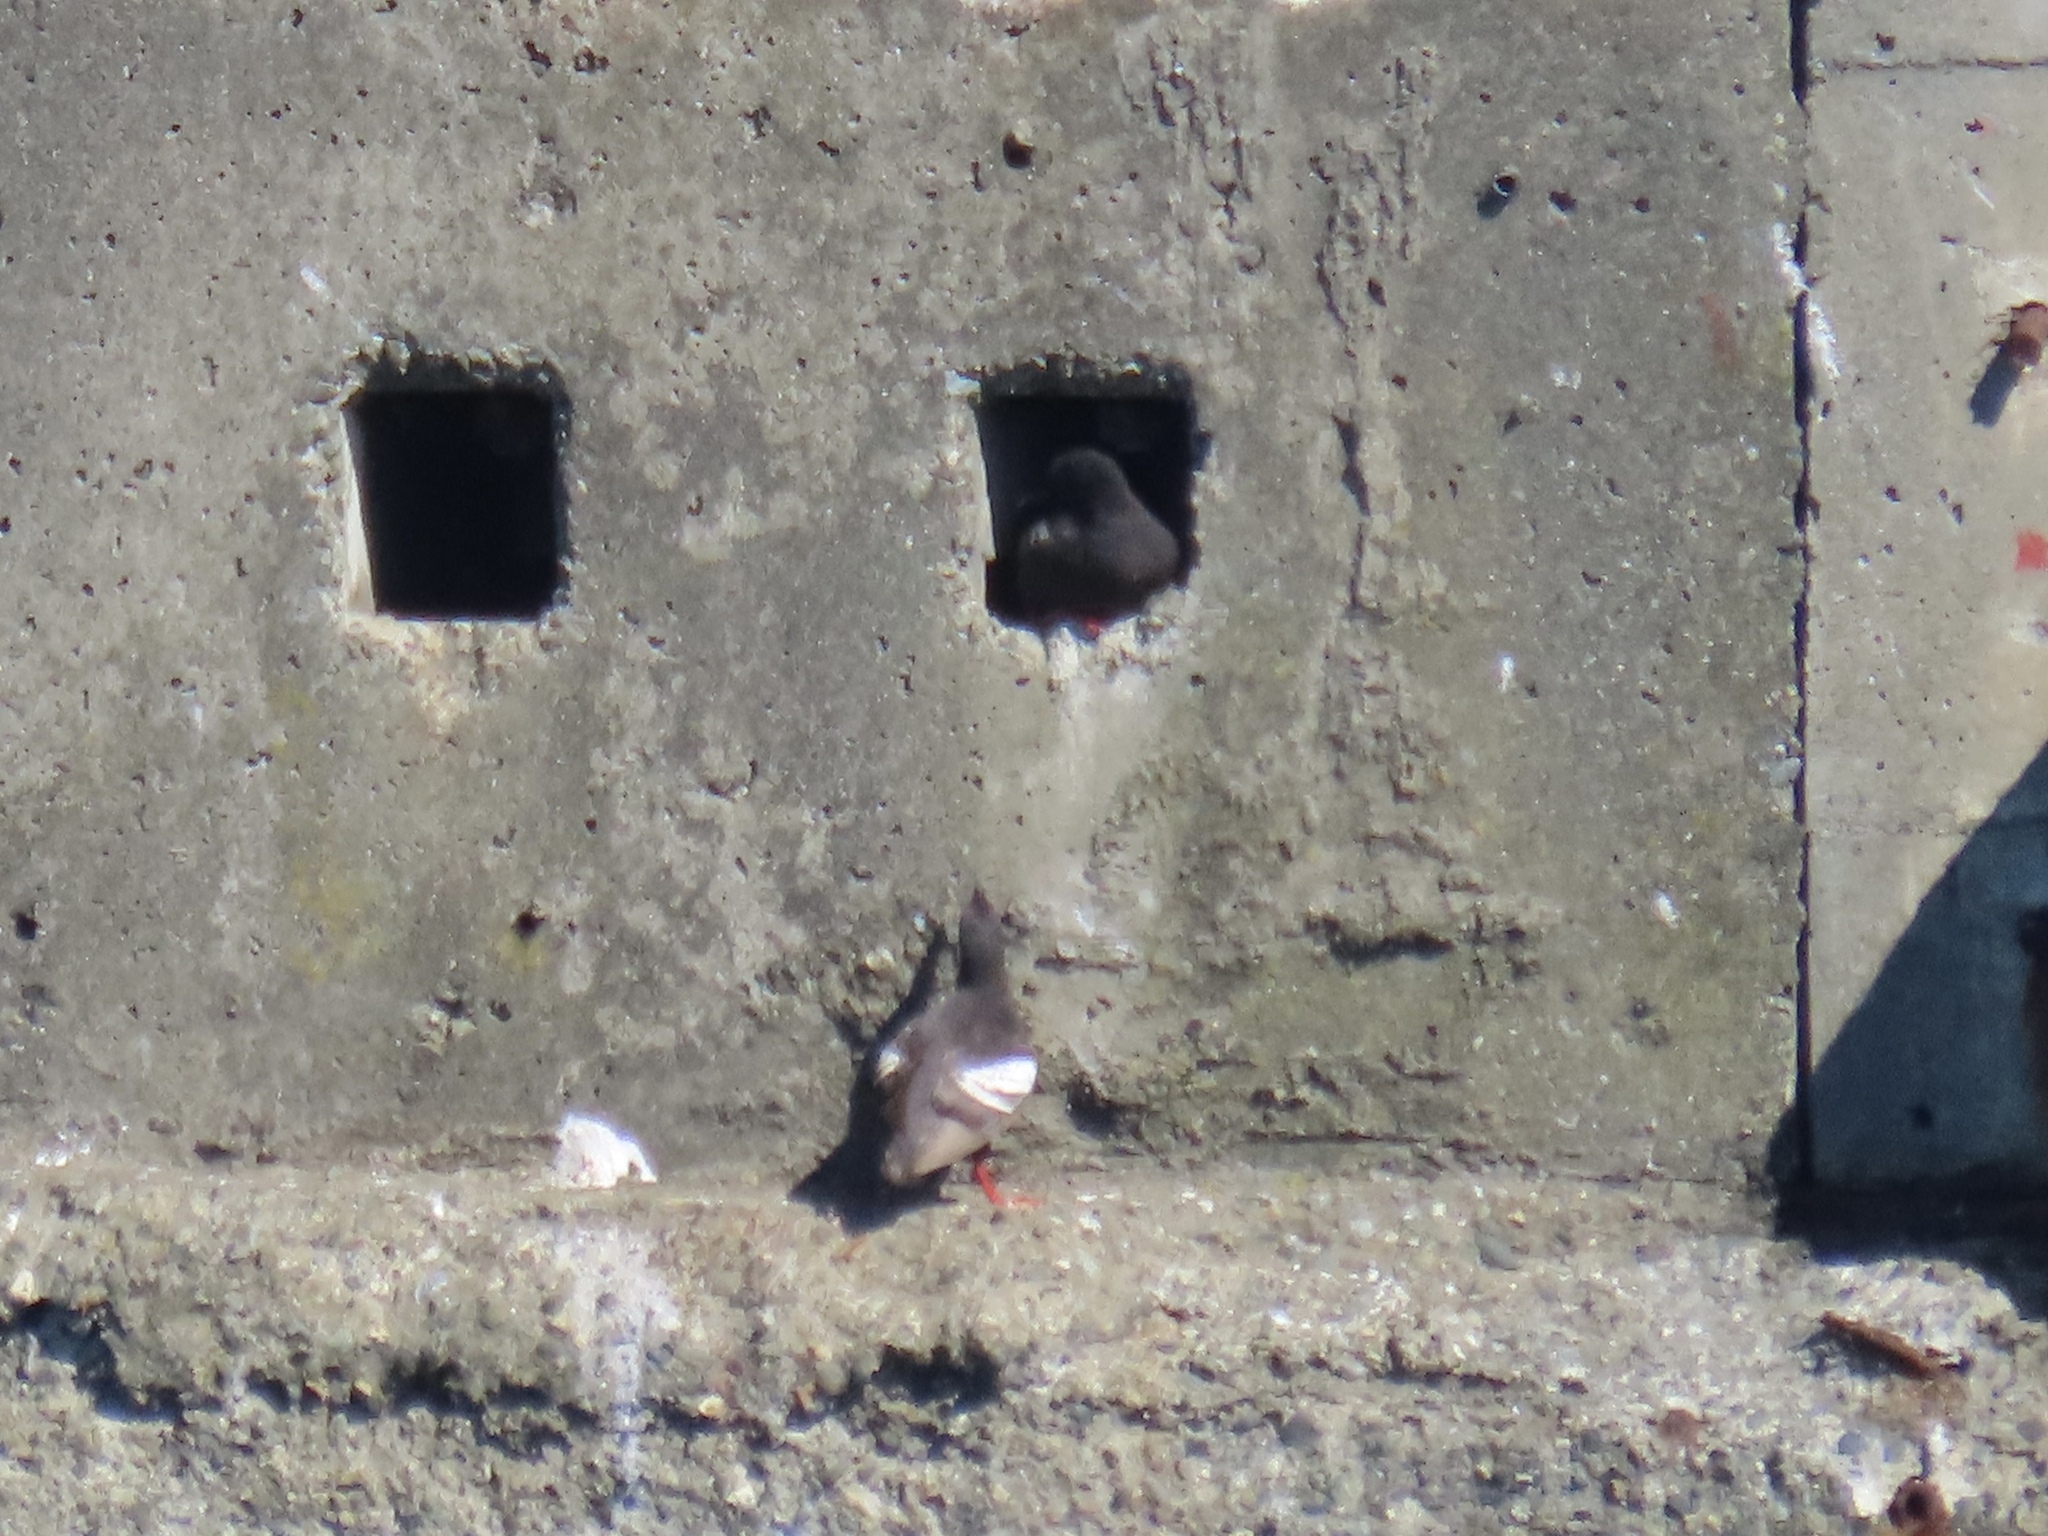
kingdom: Animalia
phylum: Chordata
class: Aves
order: Charadriiformes
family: Alcidae
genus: Cepphus
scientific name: Cepphus columba
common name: Pigeon guillemot
